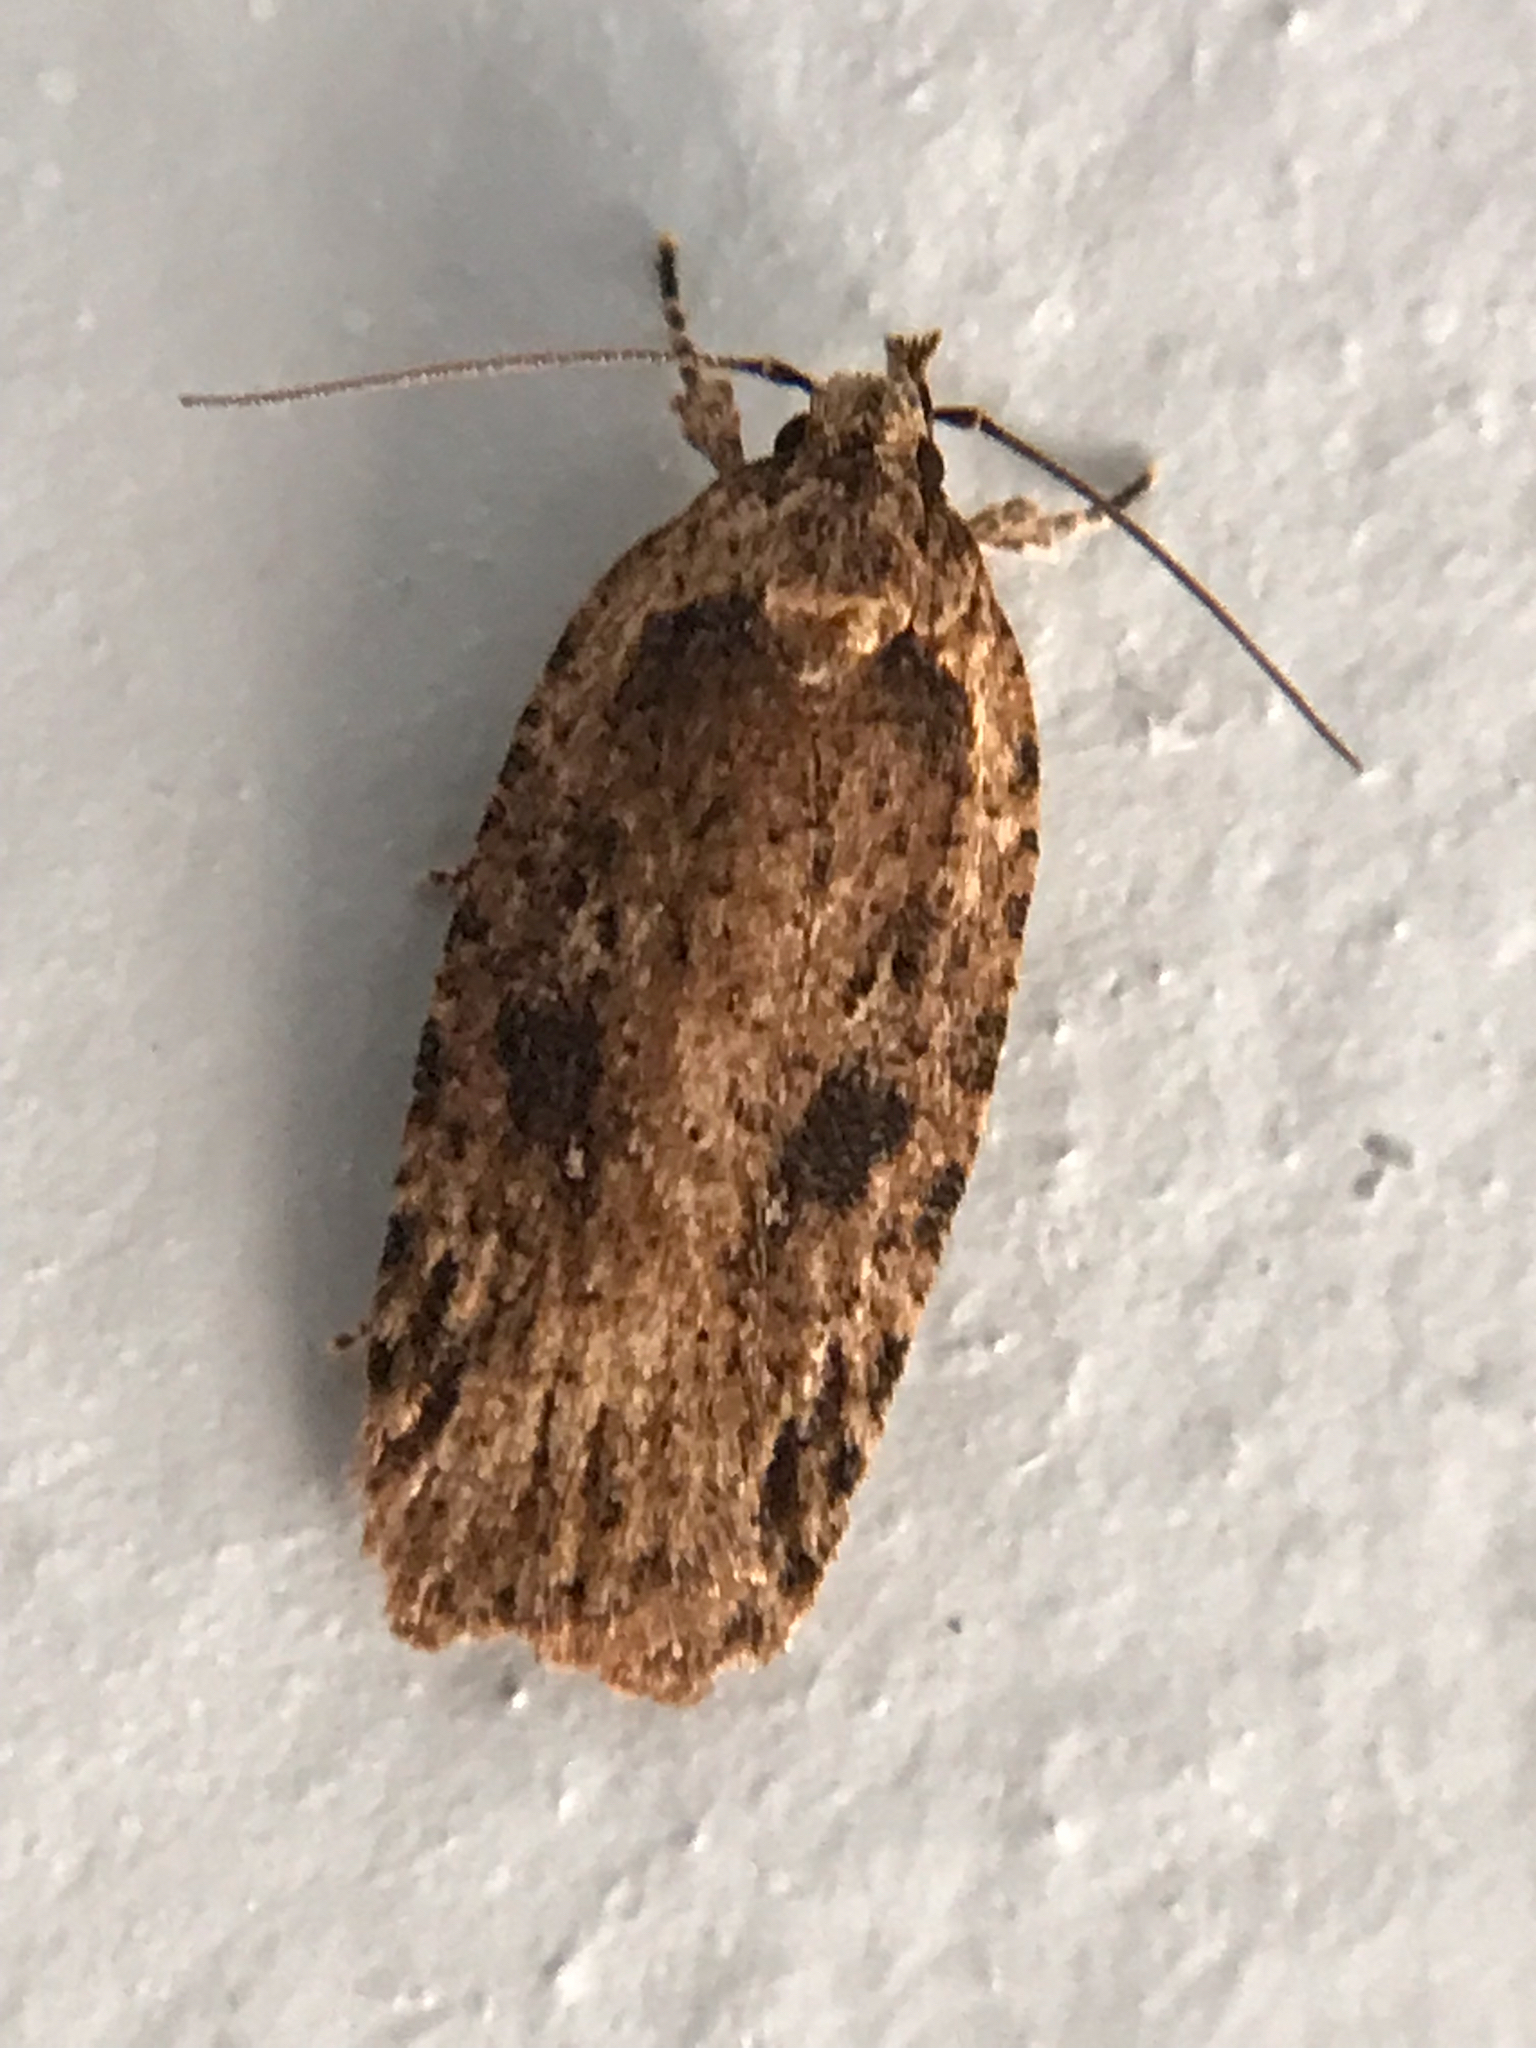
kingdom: Animalia
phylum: Arthropoda
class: Insecta
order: Lepidoptera
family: Depressariidae
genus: Agonopterix
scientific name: Agonopterix pulvipennella
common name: Goldenrod leafffolder
